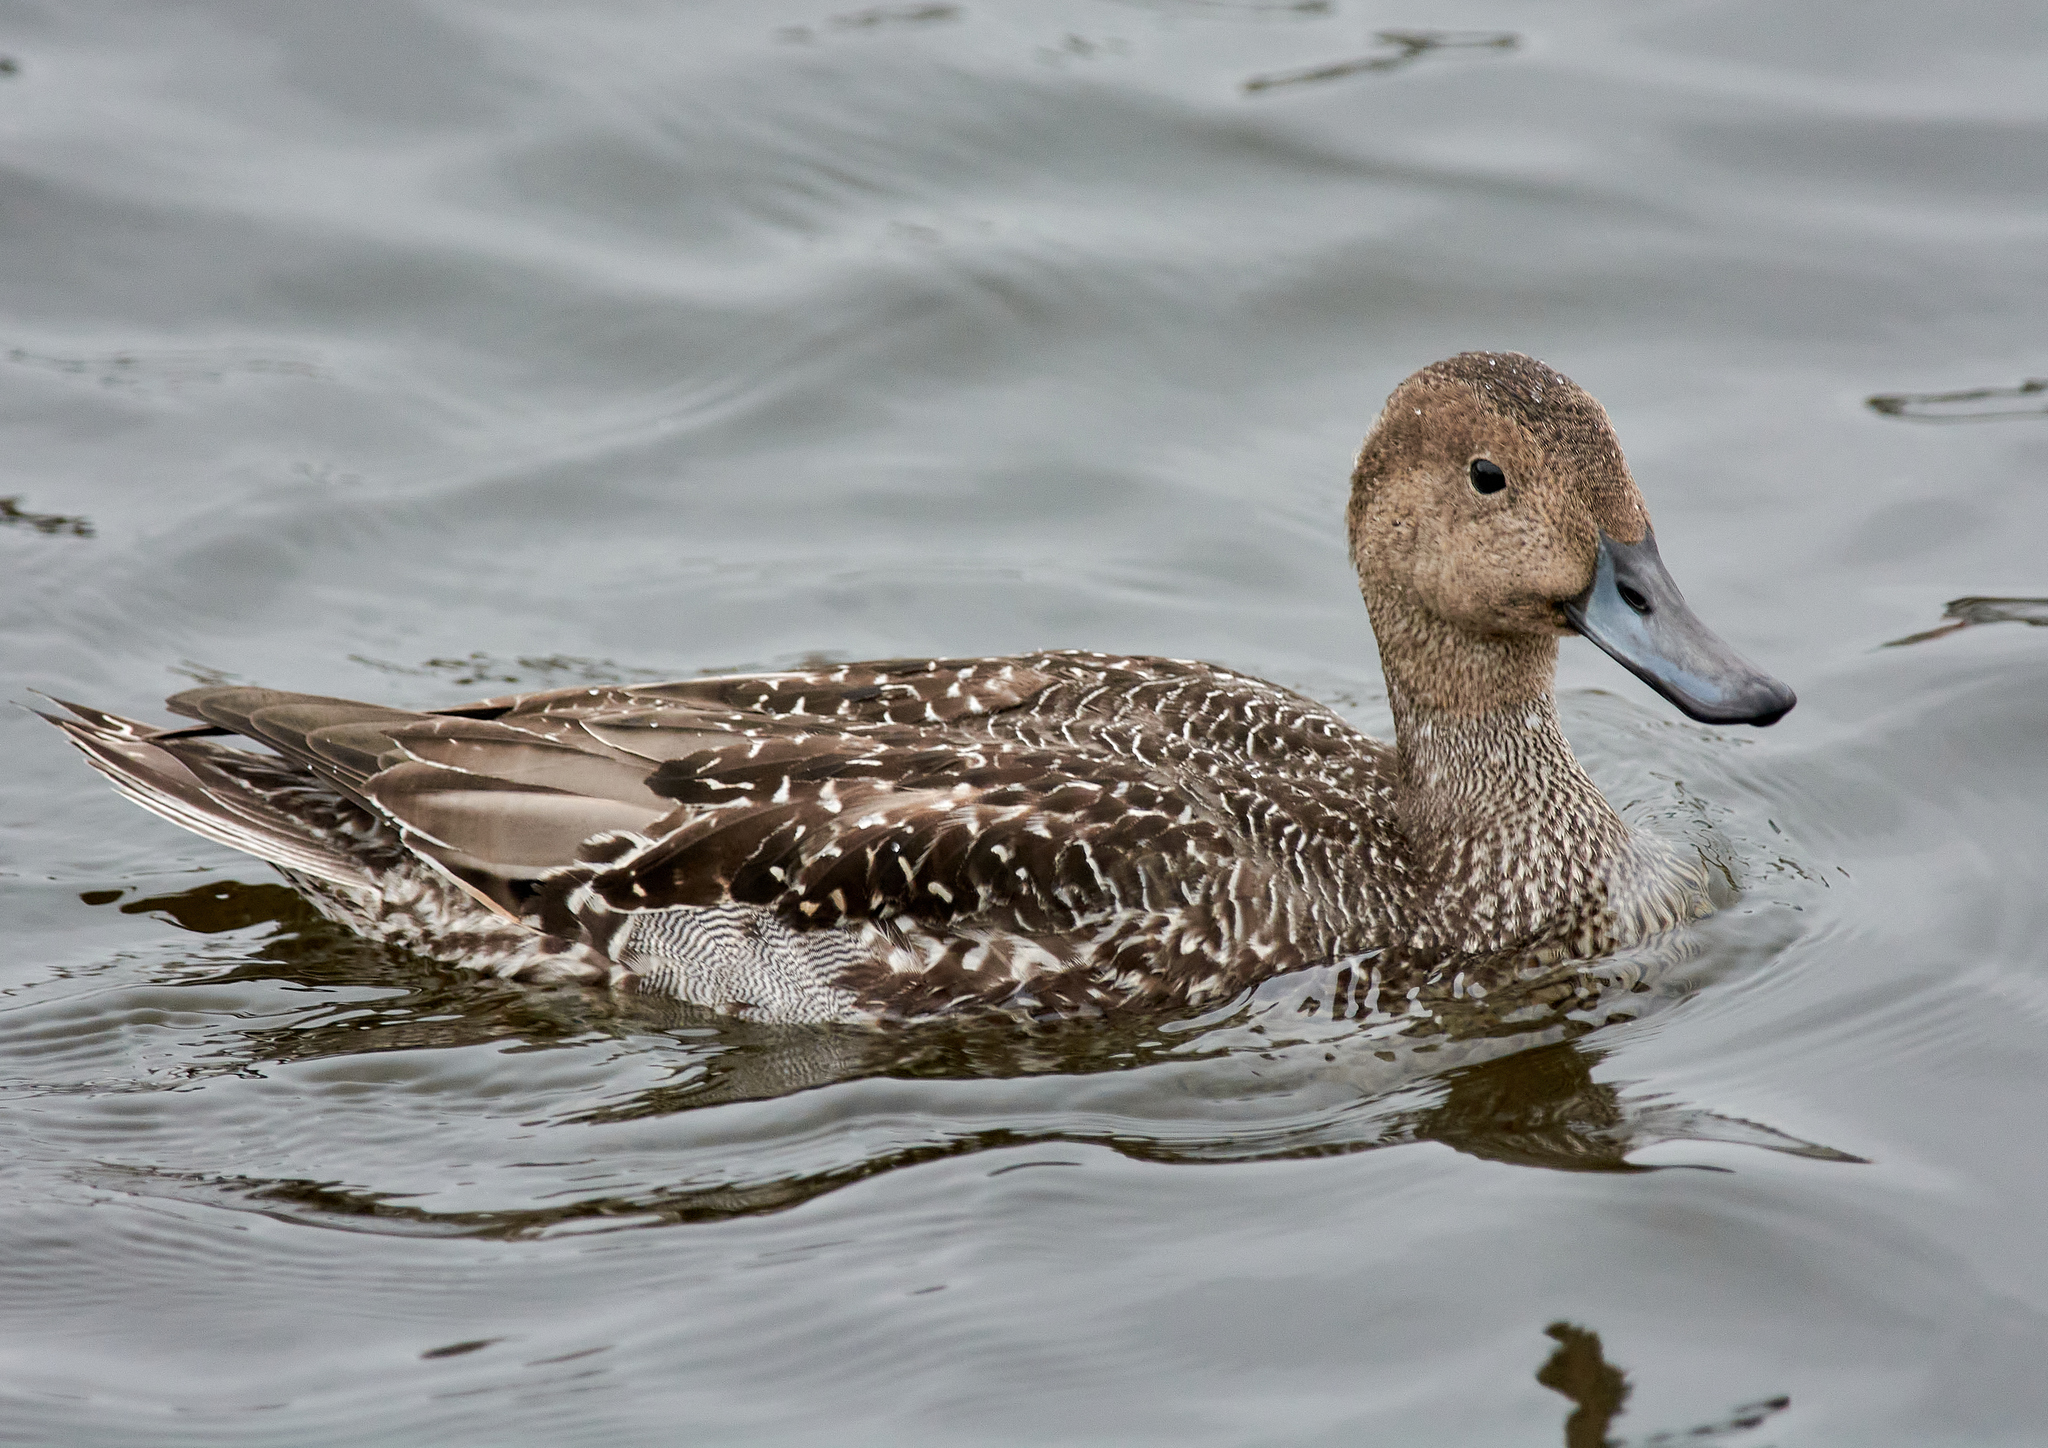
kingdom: Animalia
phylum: Chordata
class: Aves
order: Anseriformes
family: Anatidae
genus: Anas
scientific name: Anas acuta
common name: Northern pintail
